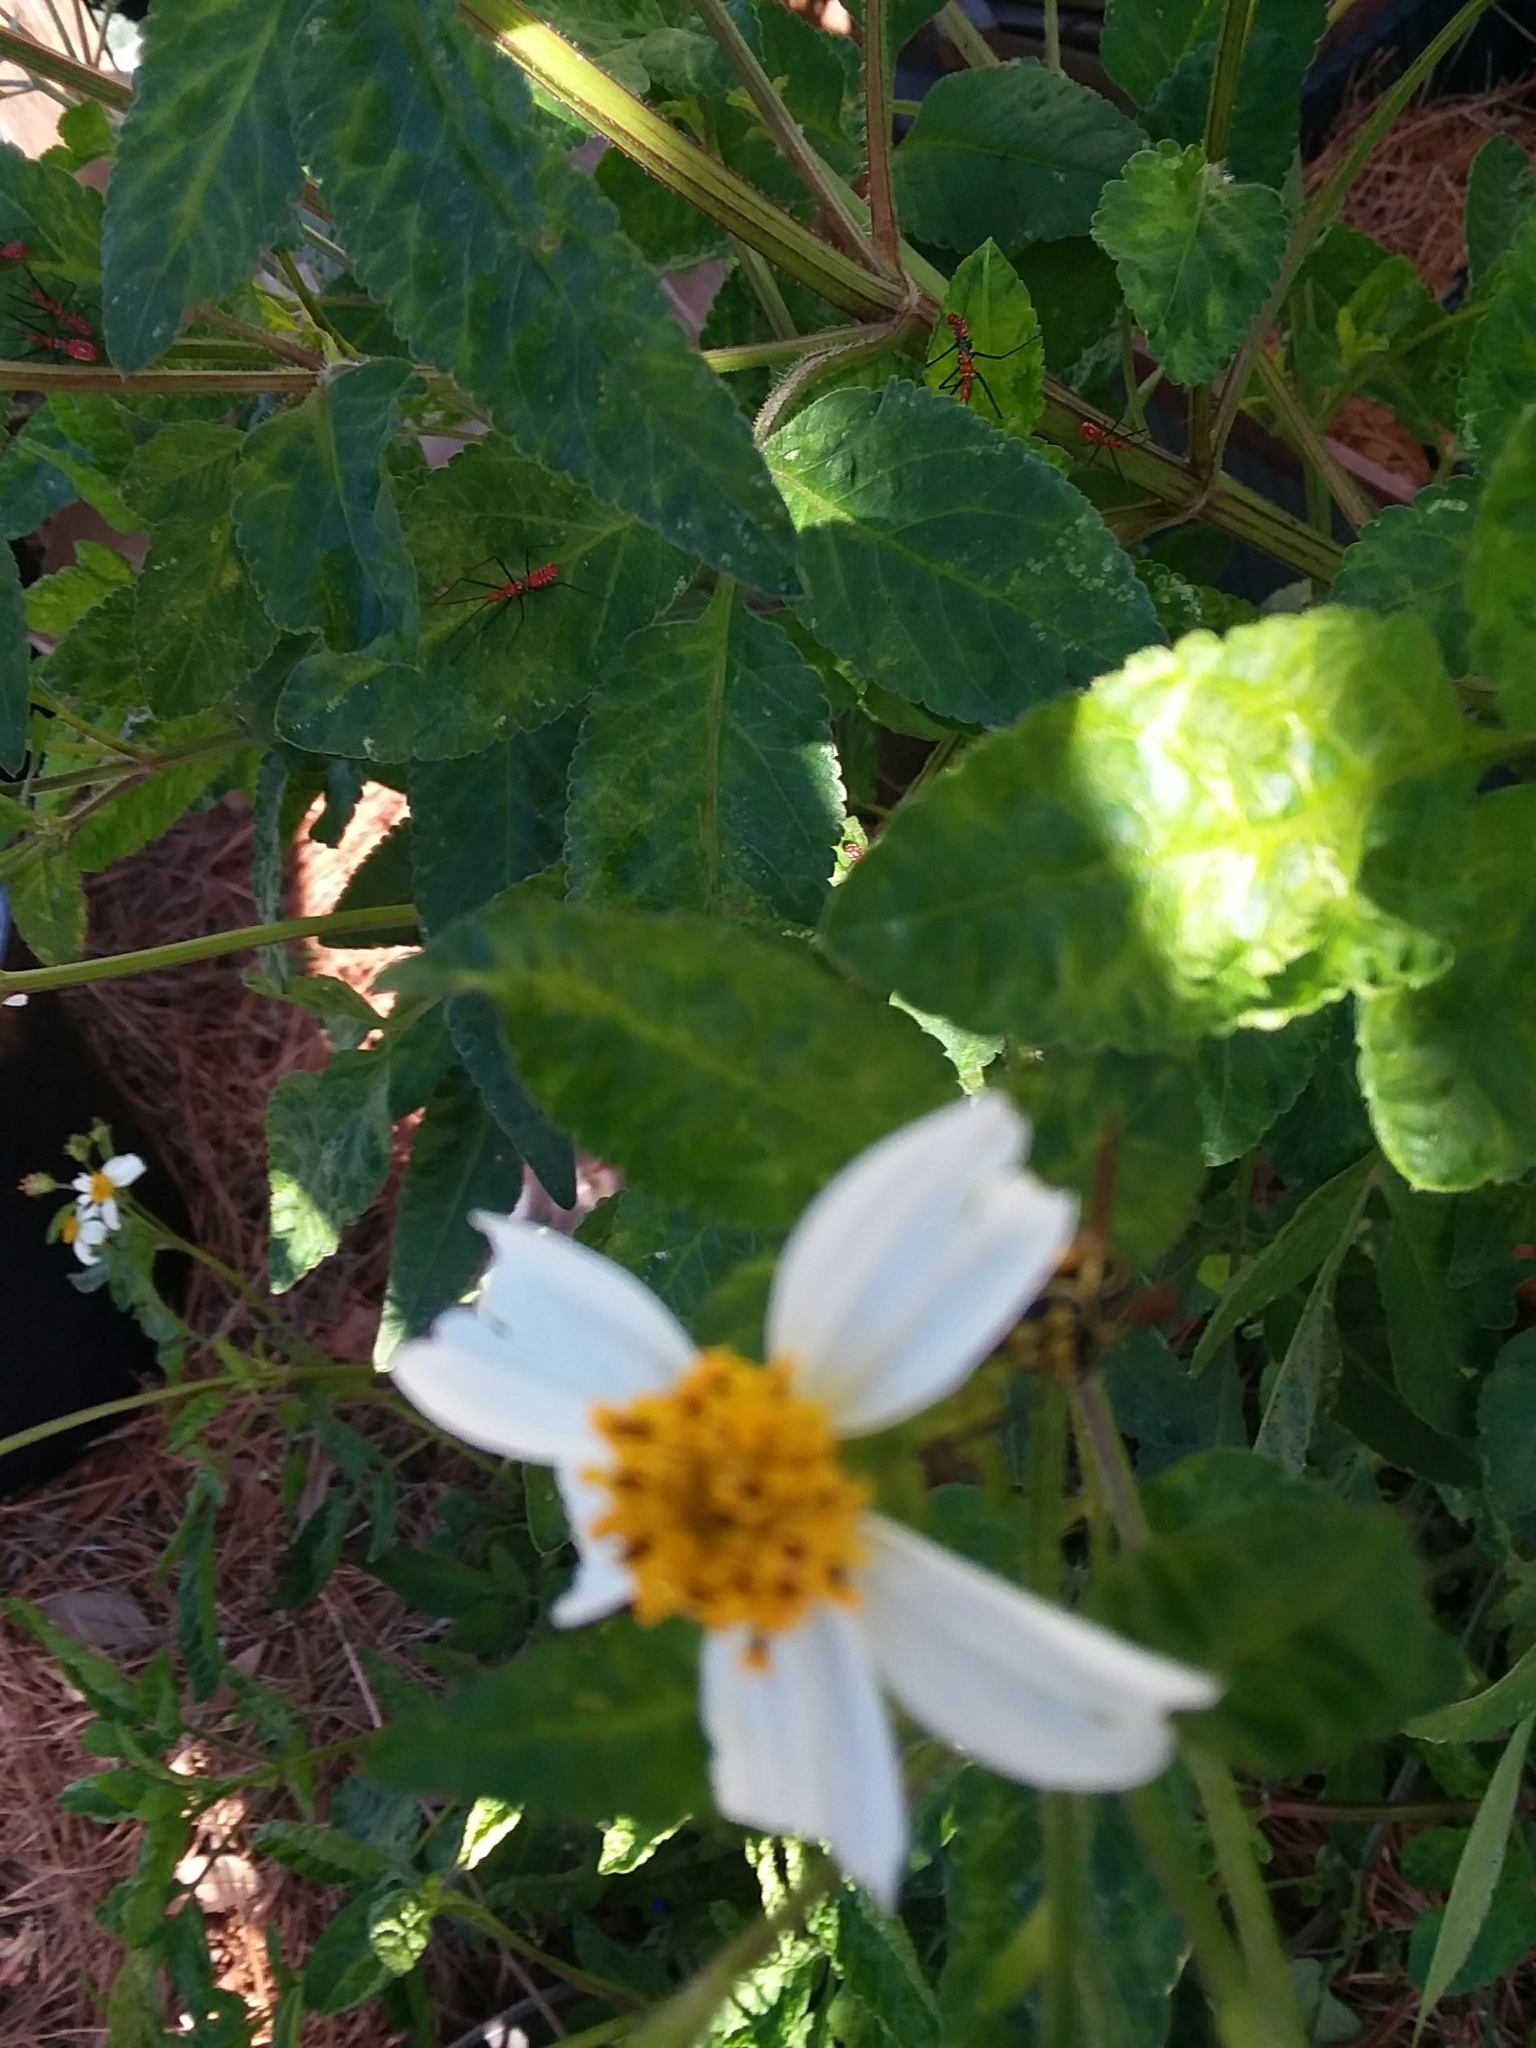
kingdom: Animalia
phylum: Arthropoda
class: Insecta
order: Hymenoptera
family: Vespidae
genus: Vespula
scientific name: Vespula squamosa
